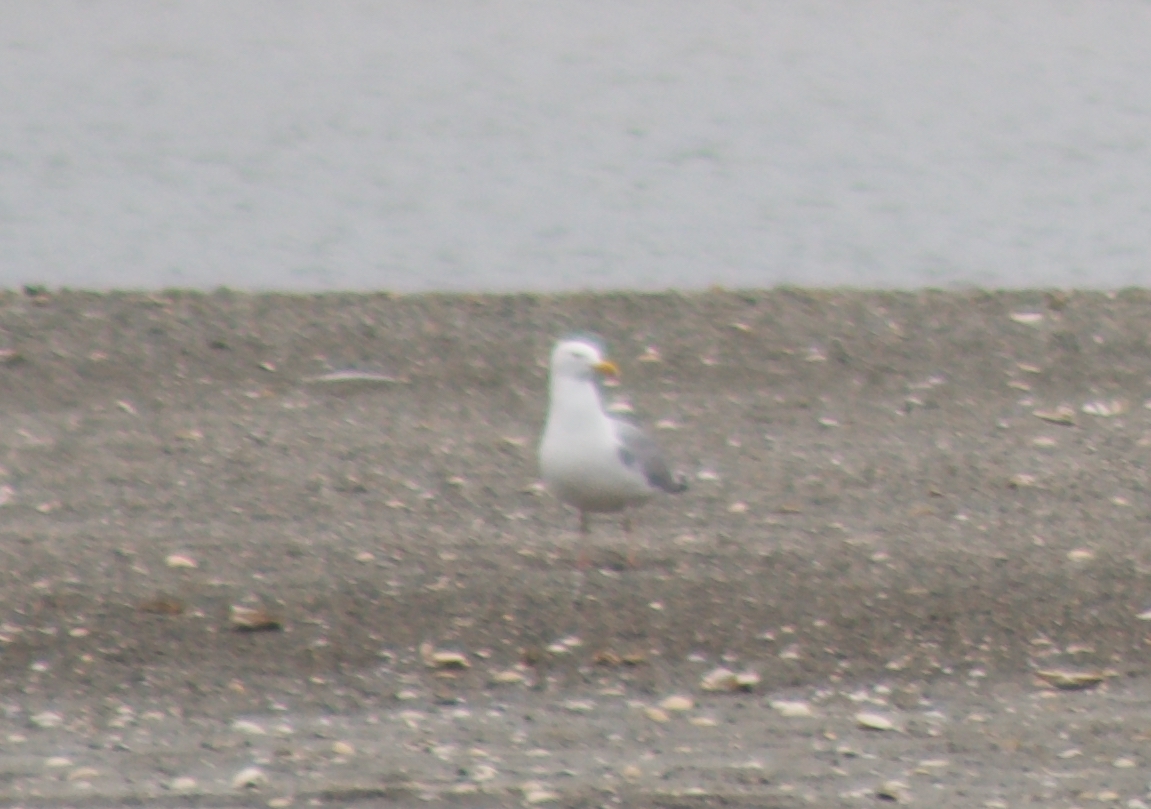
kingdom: Animalia
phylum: Chordata
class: Aves
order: Charadriiformes
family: Laridae
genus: Larus
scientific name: Larus argentatus
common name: Herring gull
